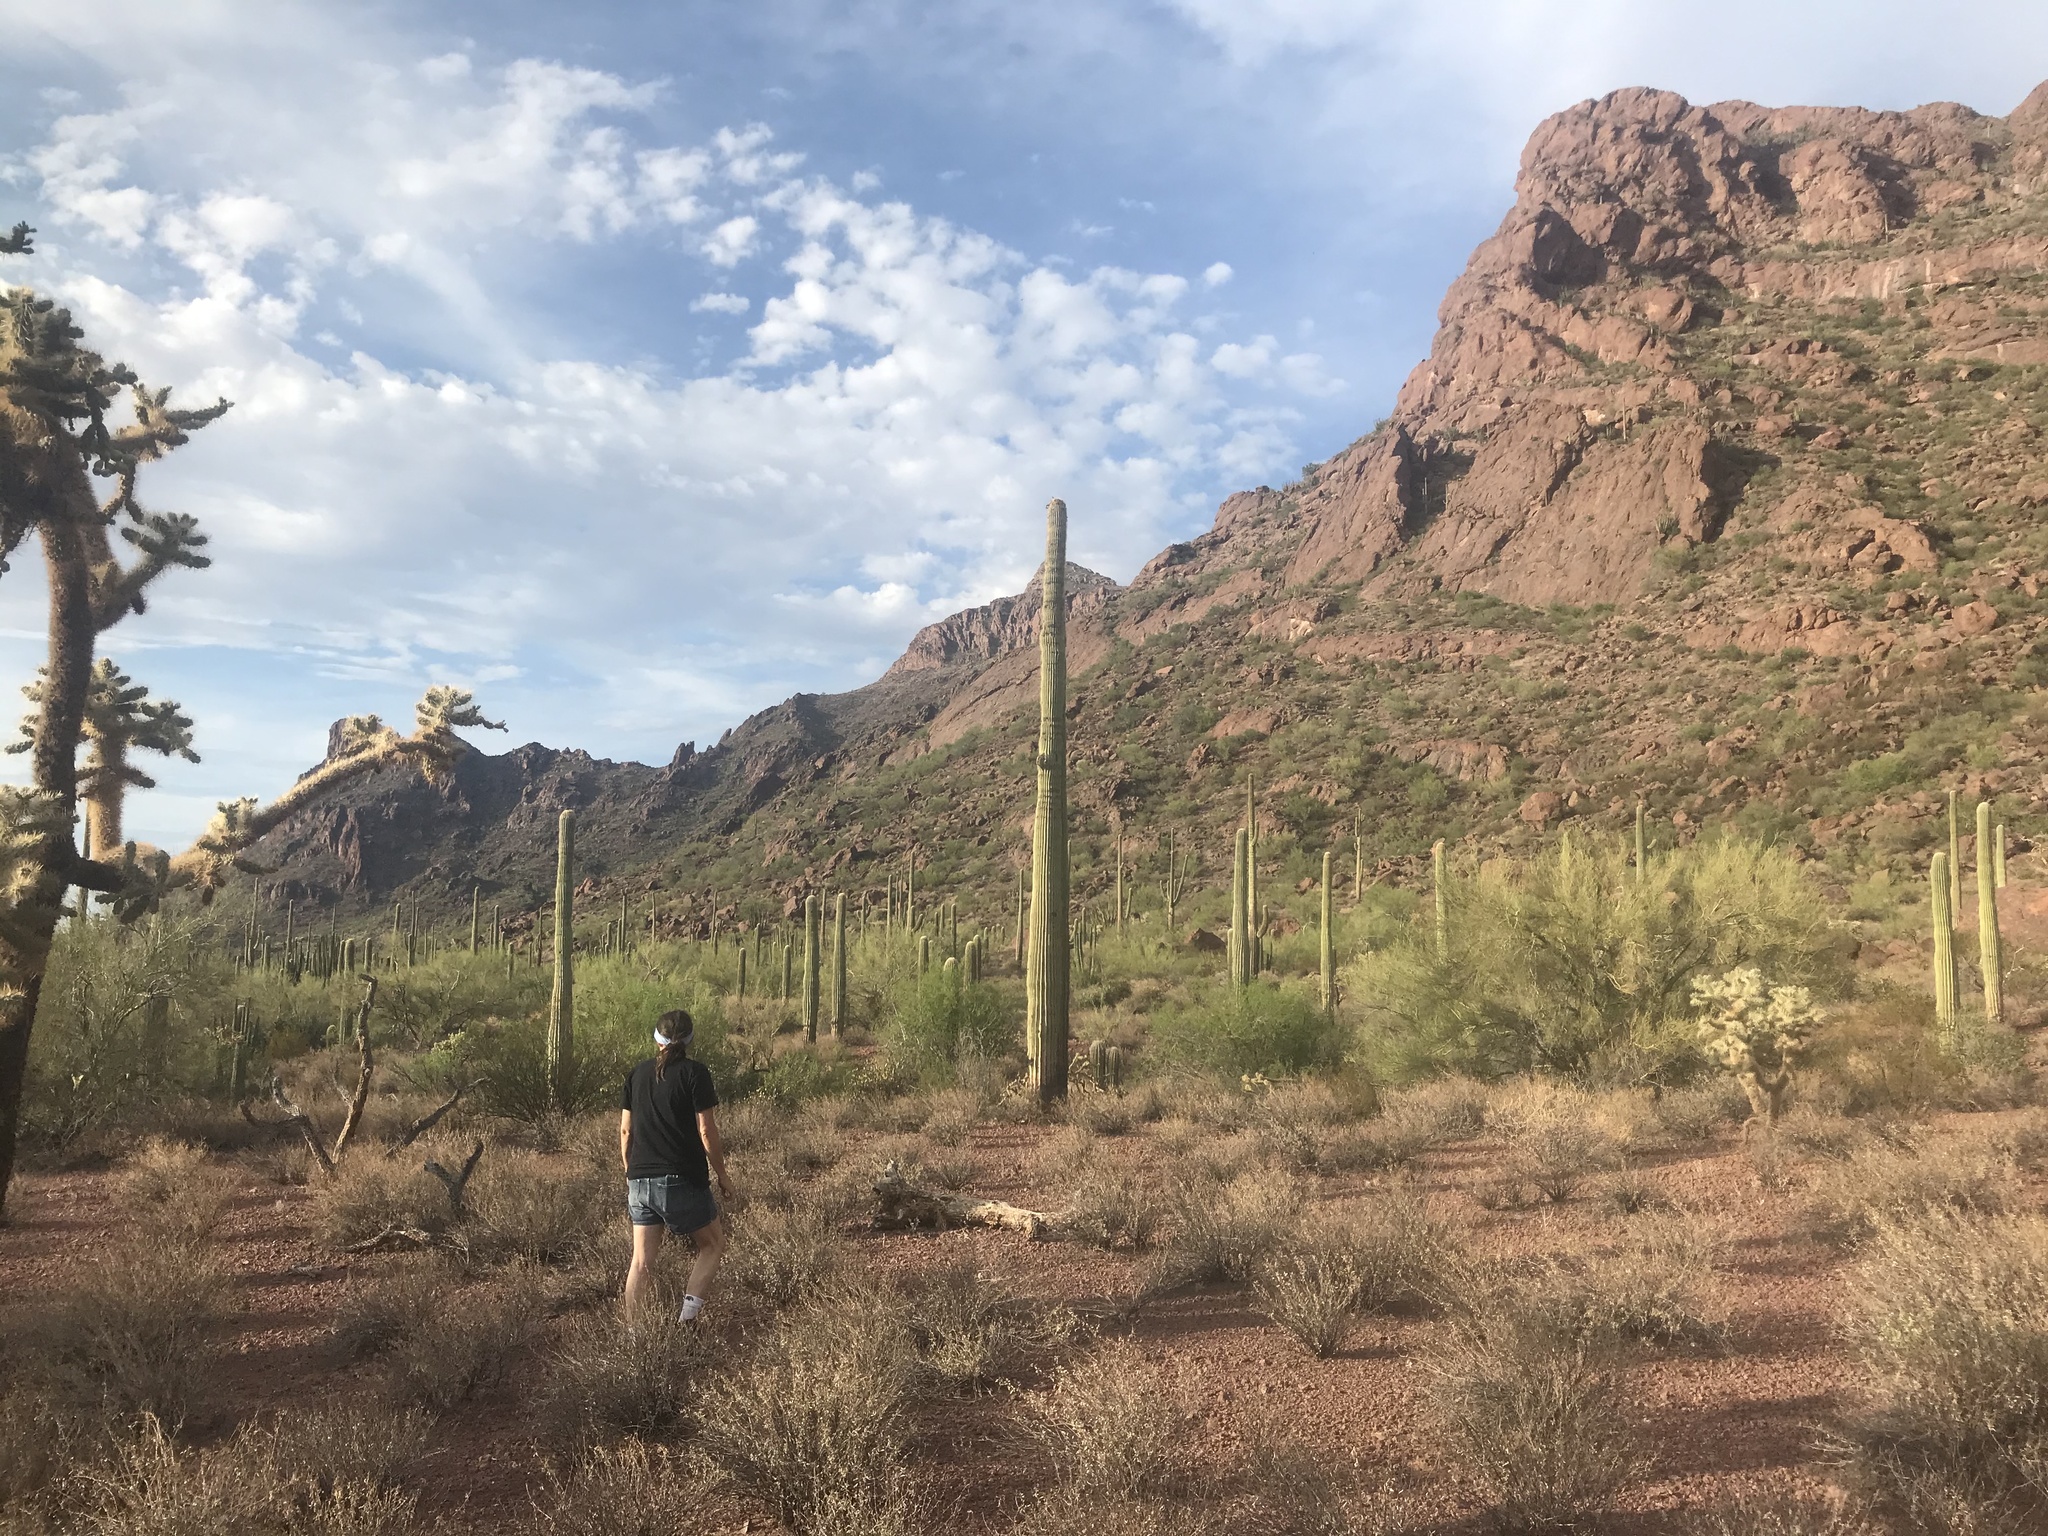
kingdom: Plantae
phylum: Tracheophyta
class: Magnoliopsida
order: Caryophyllales
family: Cactaceae
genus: Carnegiea
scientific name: Carnegiea gigantea
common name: Saguaro
